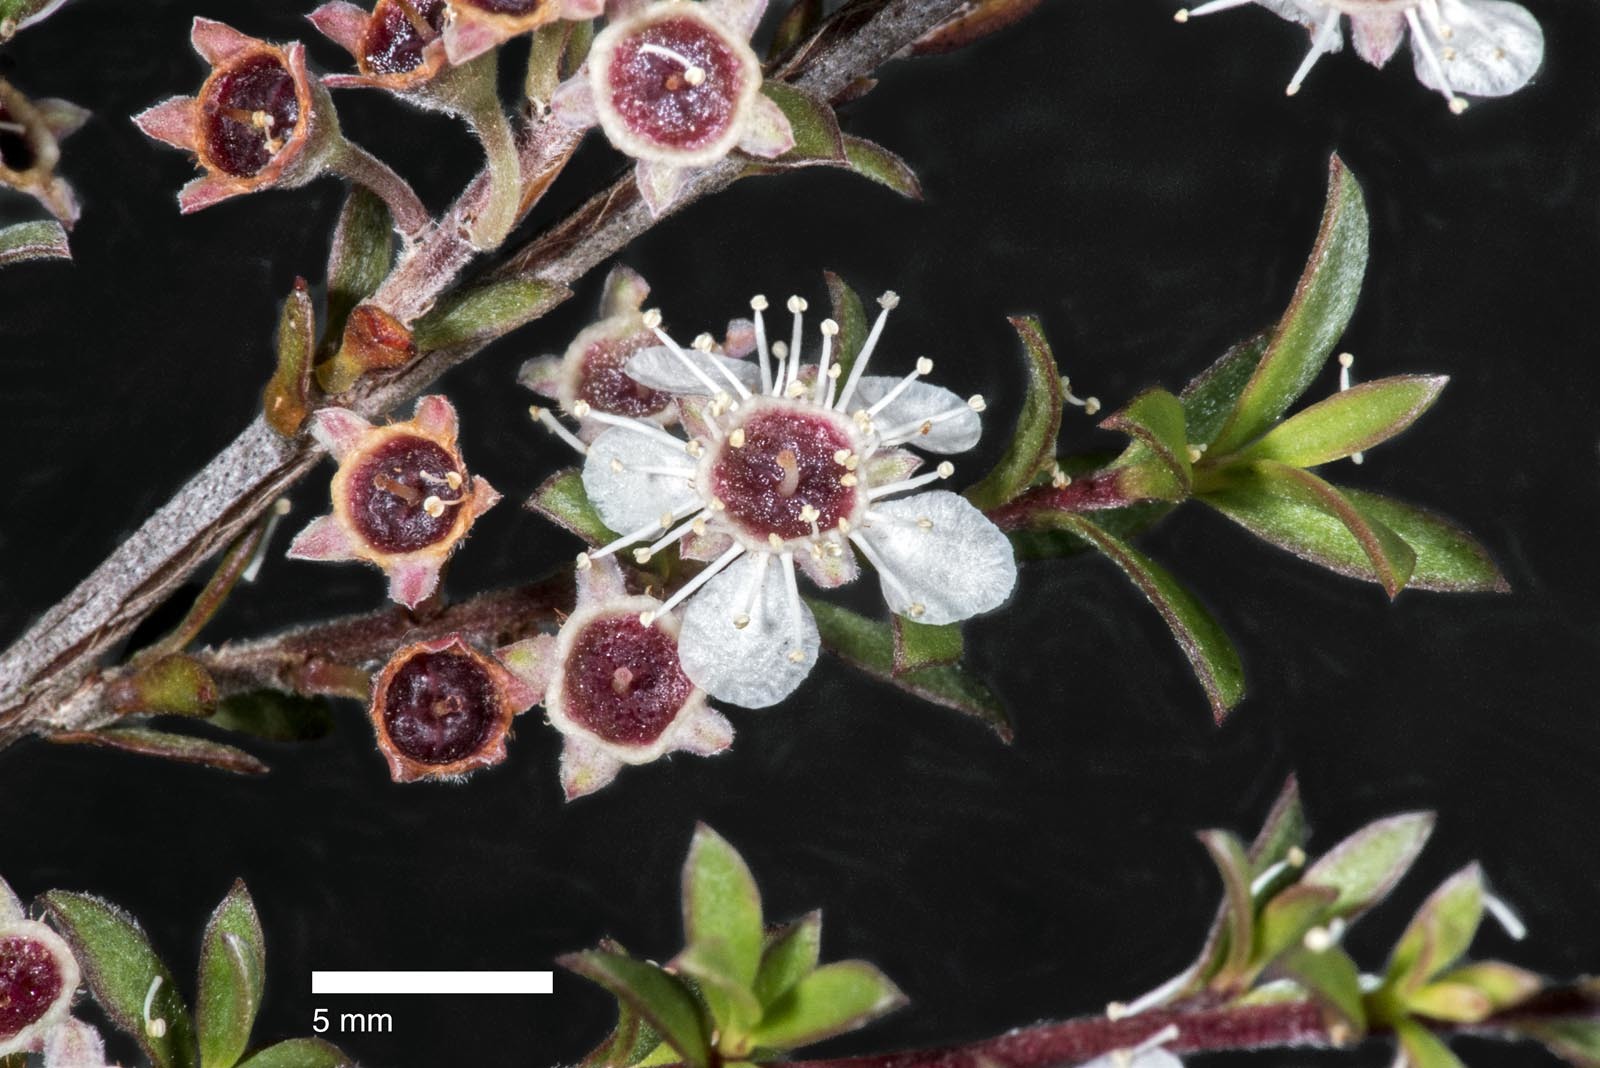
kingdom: Plantae
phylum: Tracheophyta
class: Magnoliopsida
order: Myrtales
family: Myrtaceae
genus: Kunzea
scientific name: Kunzea sinclairii
